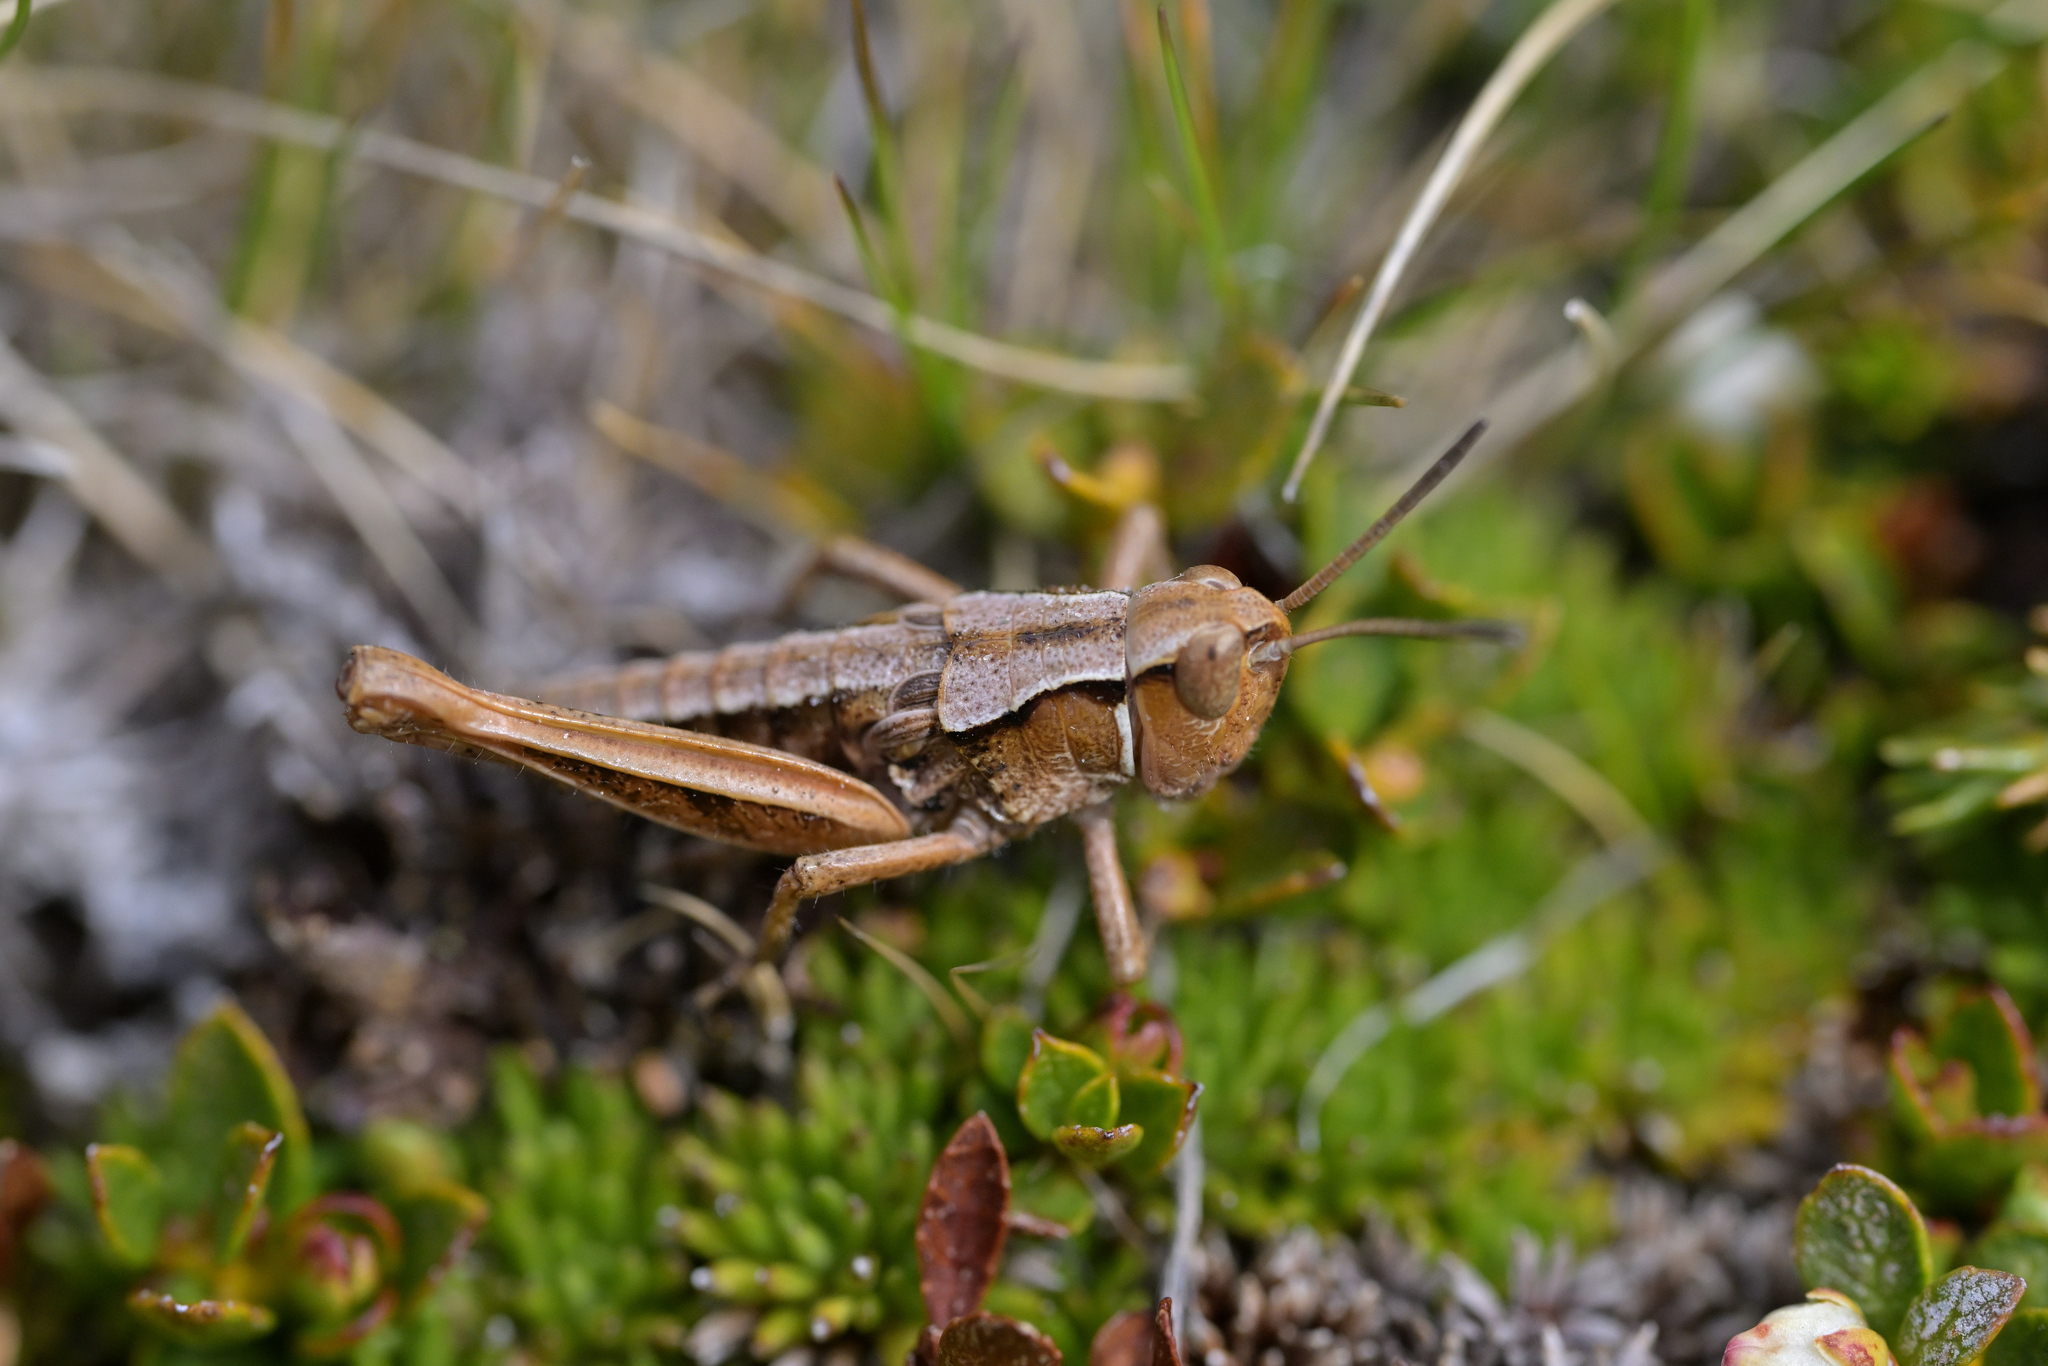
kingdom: Animalia
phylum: Arthropoda
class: Insecta
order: Orthoptera
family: Acrididae
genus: Sigaus
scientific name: Sigaus australis
